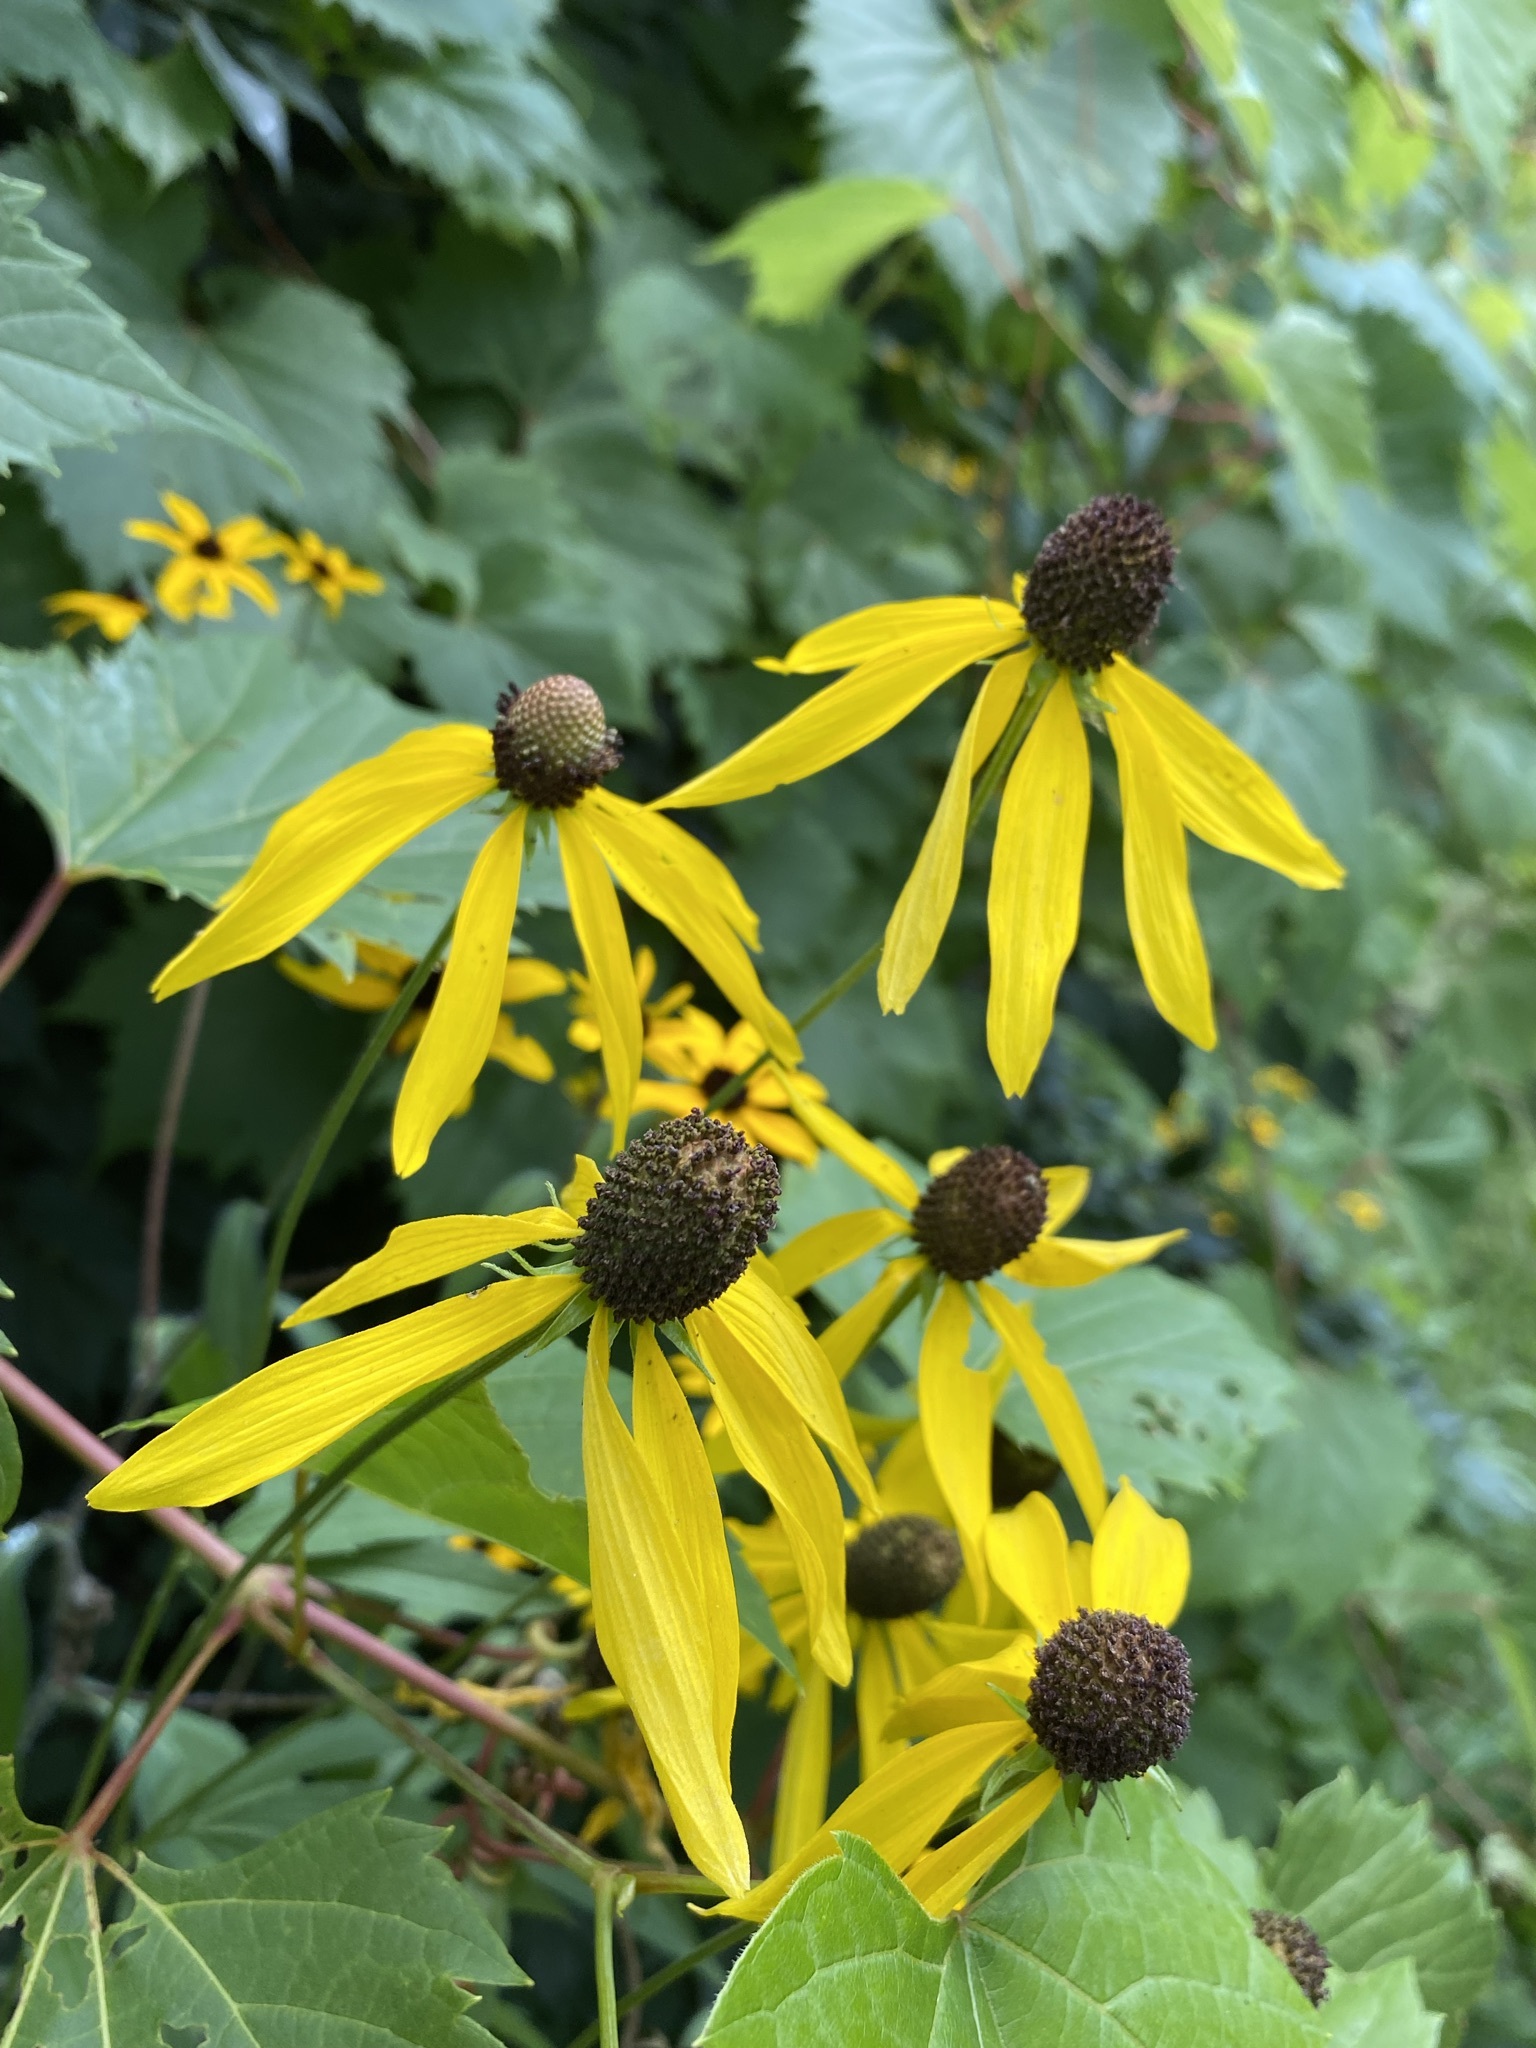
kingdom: Plantae
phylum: Tracheophyta
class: Magnoliopsida
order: Asterales
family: Asteraceae
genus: Ratibida
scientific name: Ratibida pinnata
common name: Drooping prairie-coneflower
